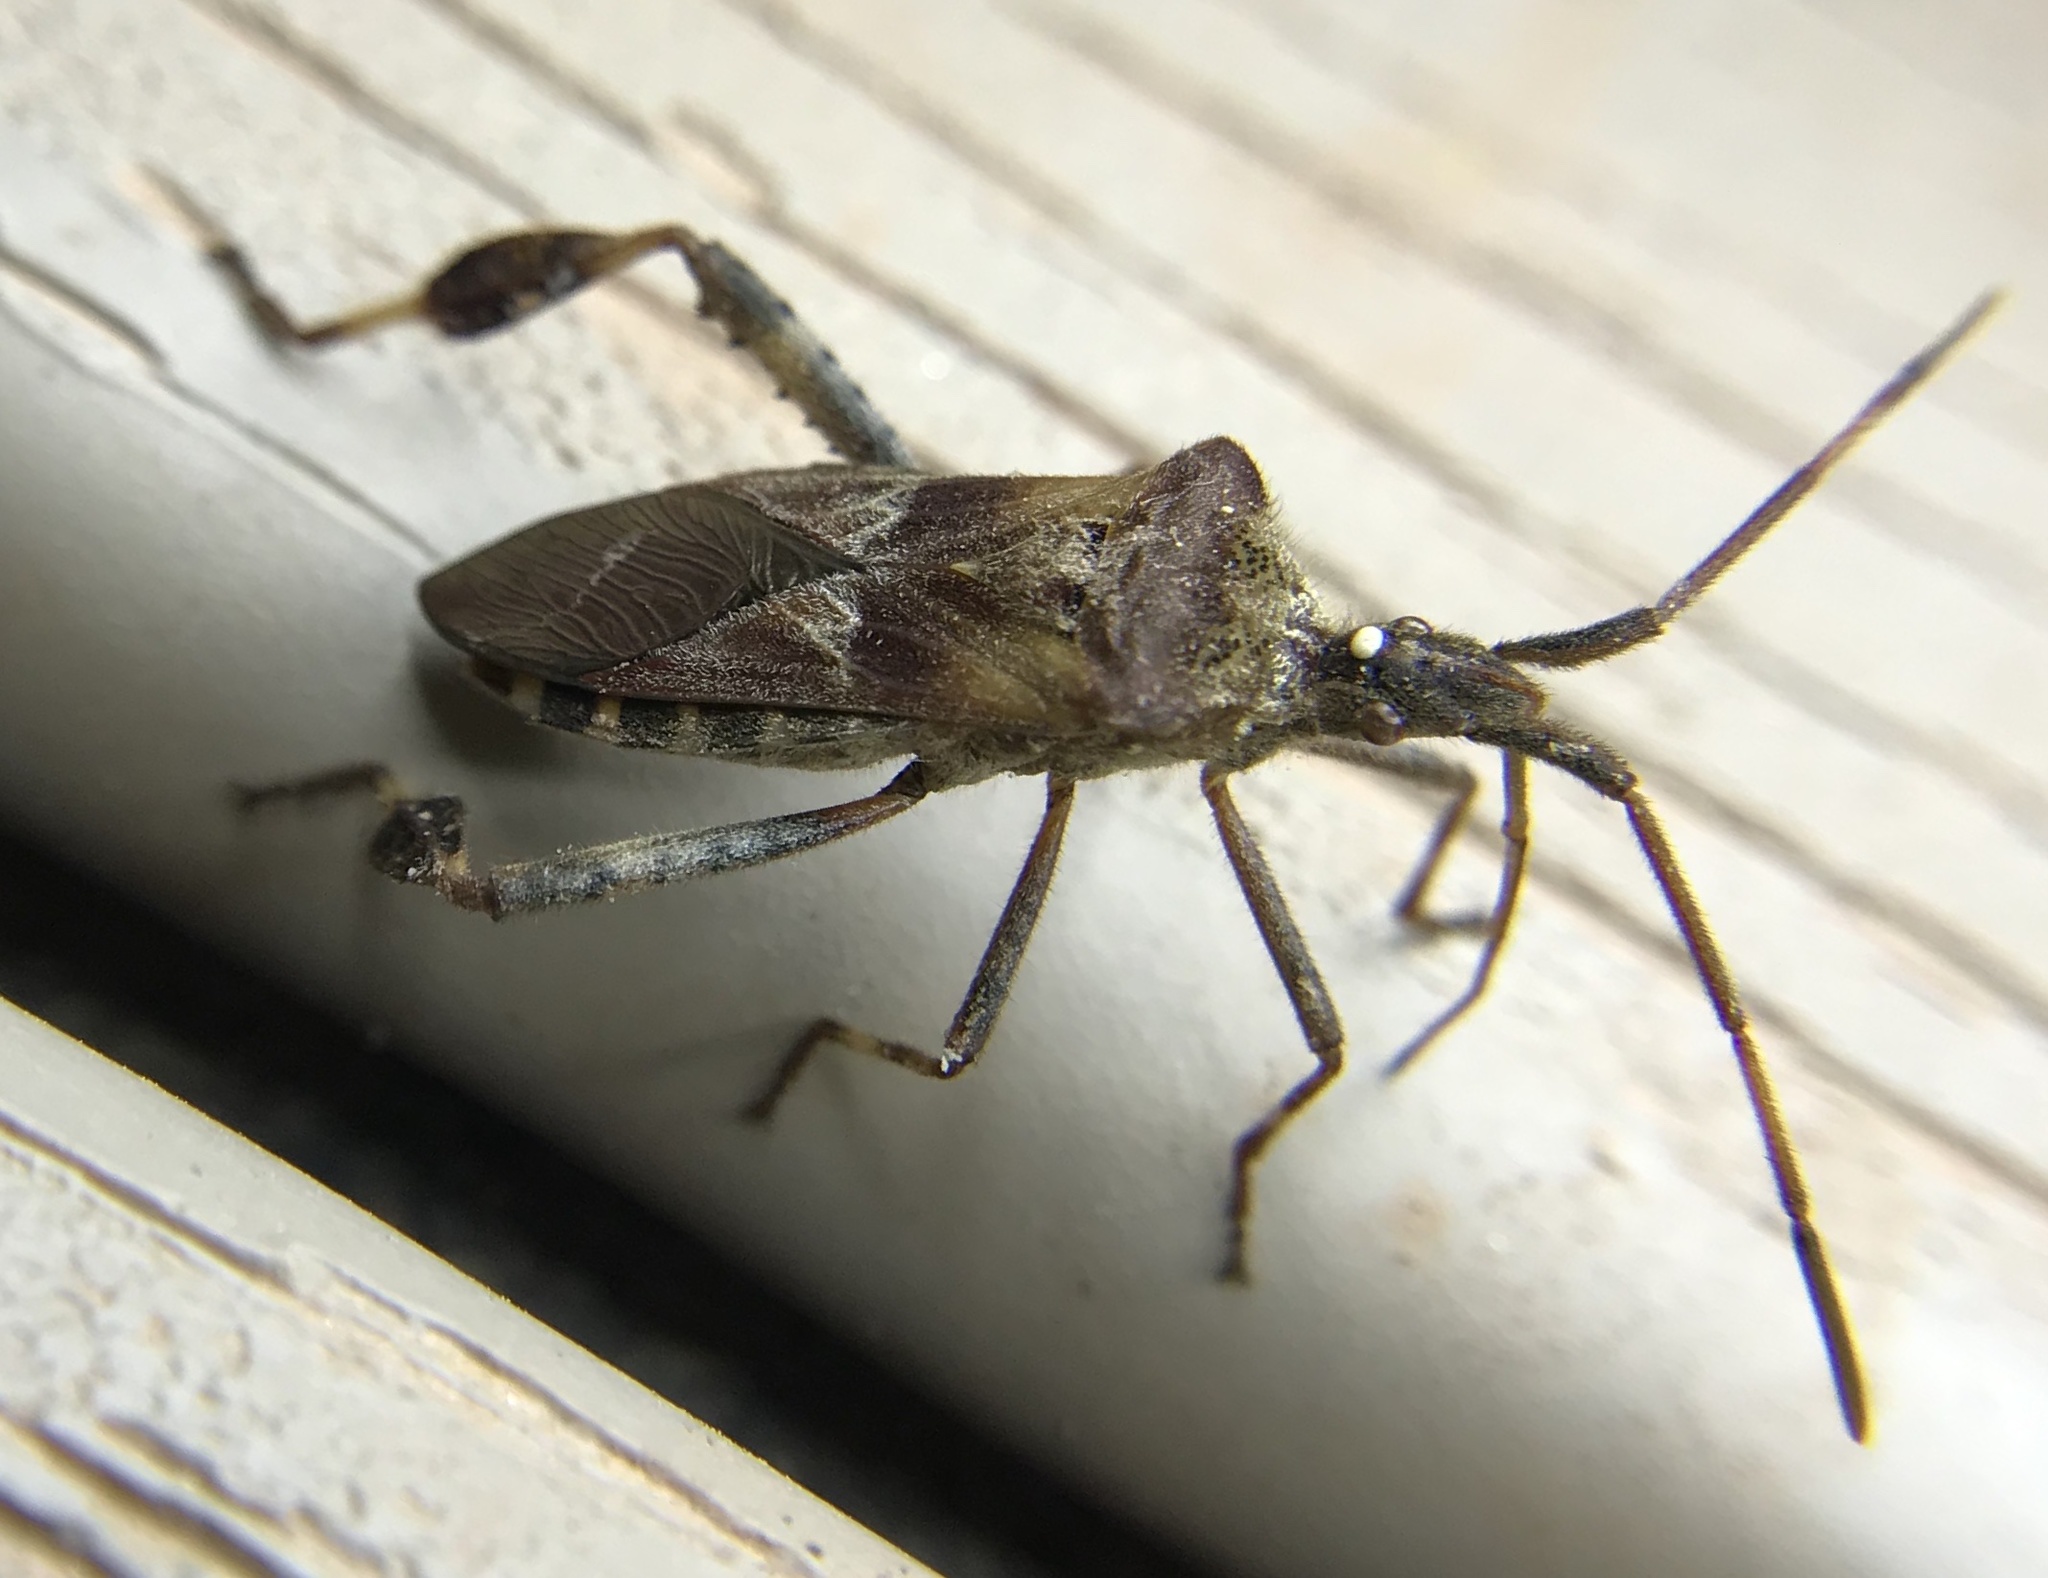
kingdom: Animalia
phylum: Arthropoda
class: Insecta
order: Hemiptera
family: Coreidae
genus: Leptoglossus
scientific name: Leptoglossus occidentalis
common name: Western conifer-seed bug
